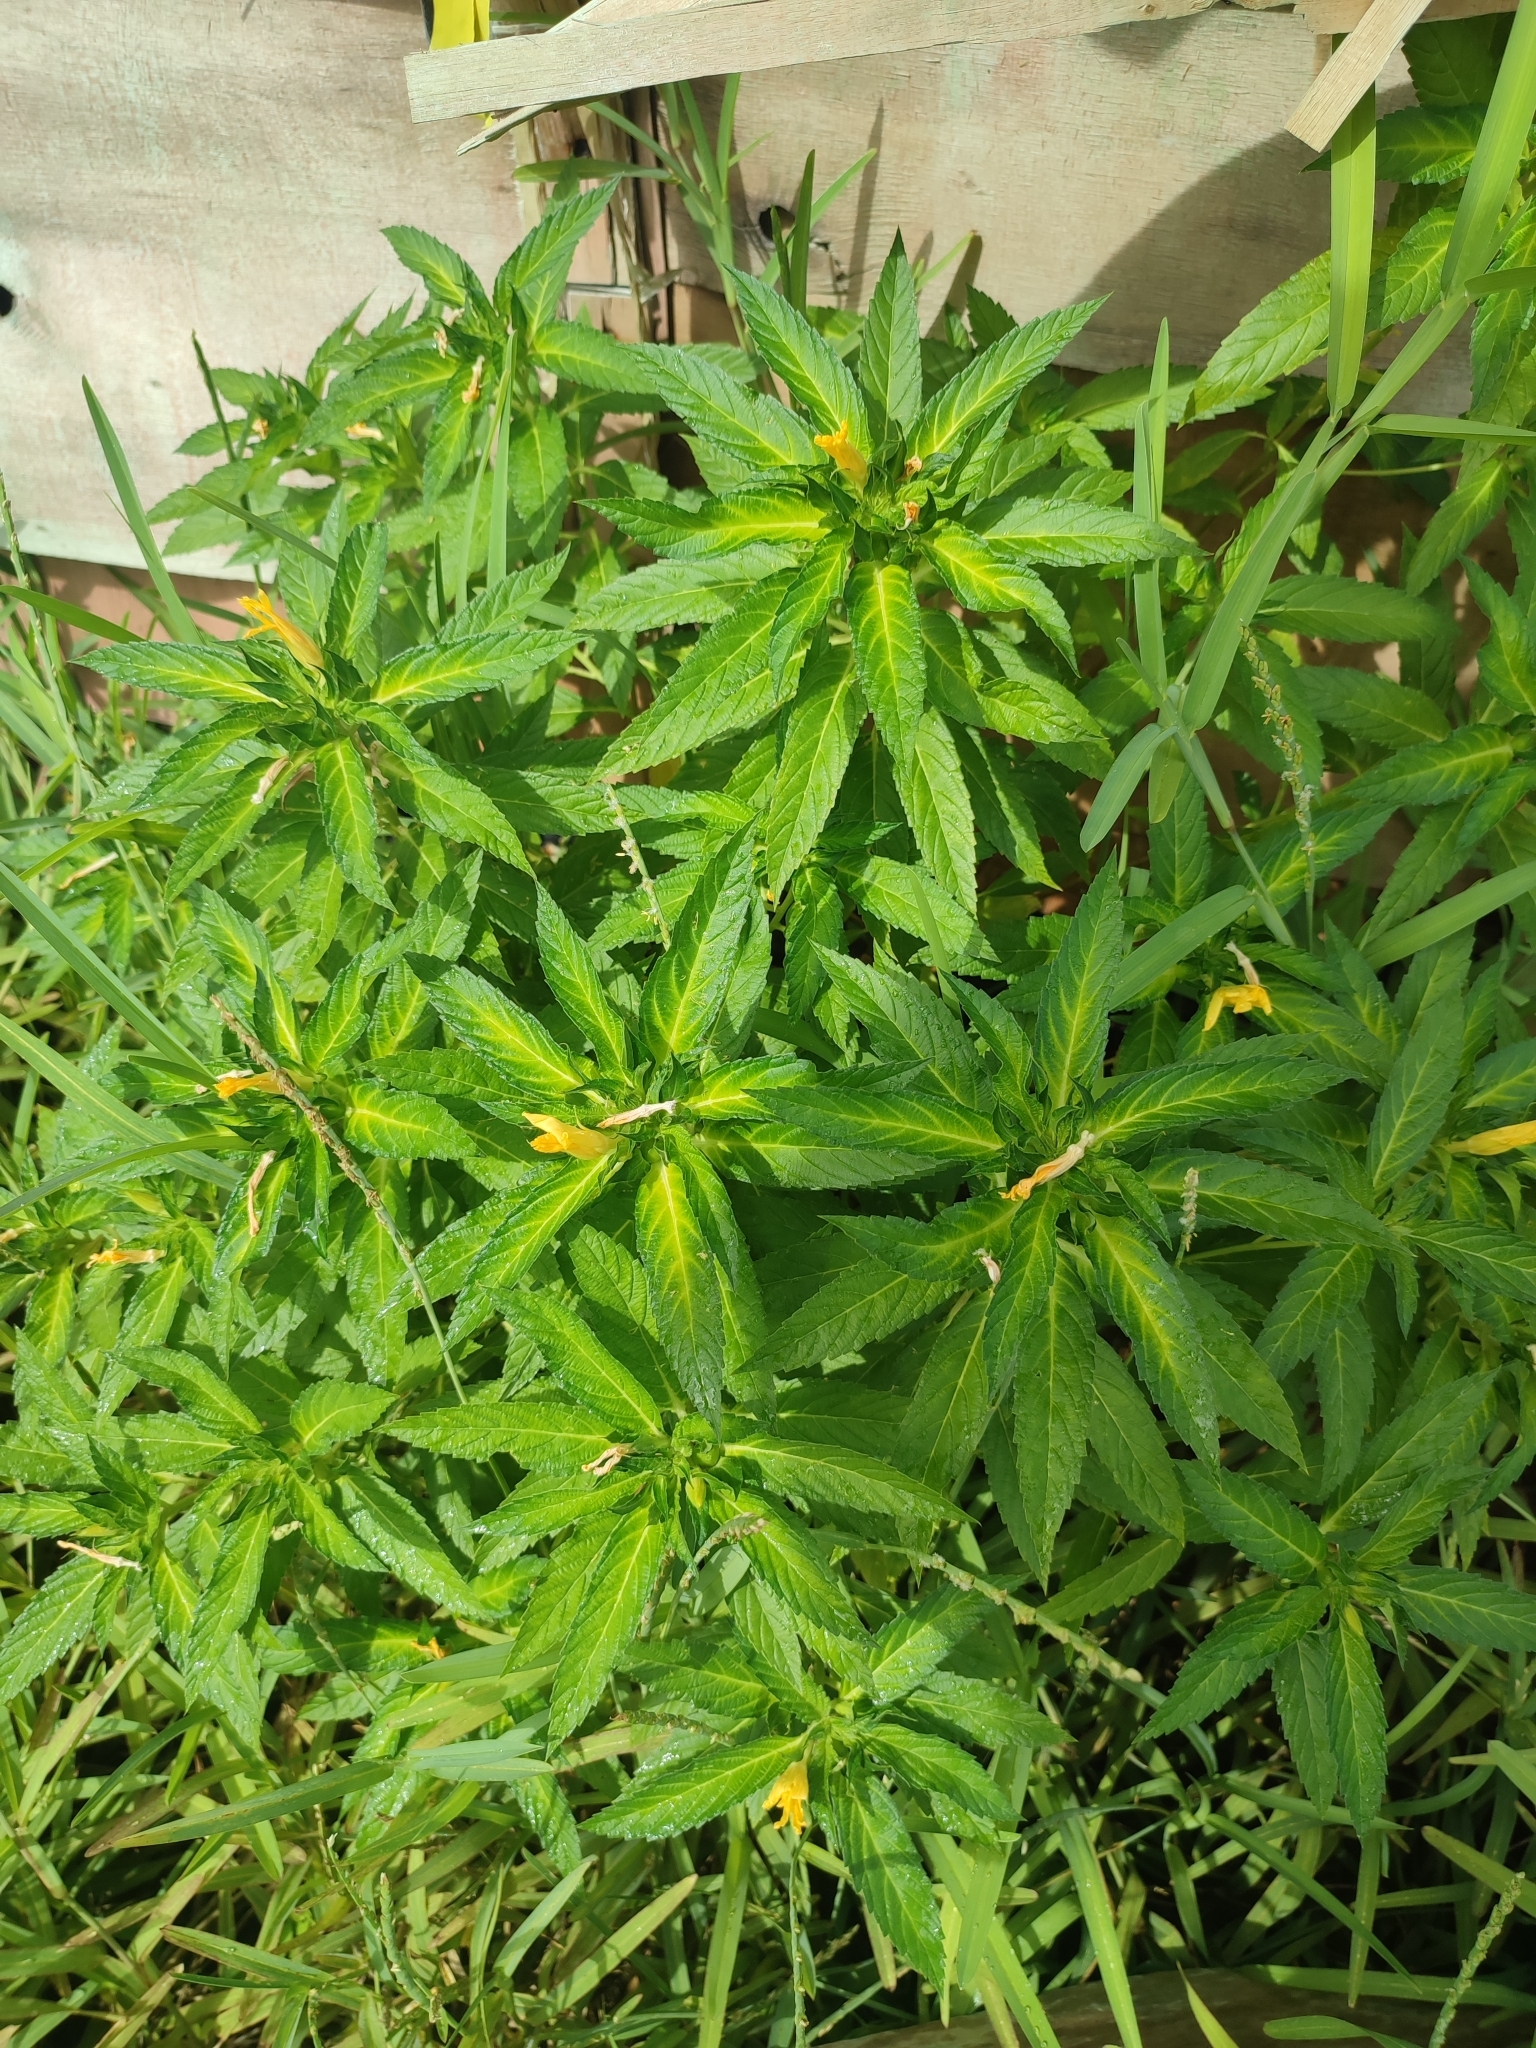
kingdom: Plantae
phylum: Tracheophyta
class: Magnoliopsida
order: Malpighiales
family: Turneraceae
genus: Turnera
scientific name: Turnera ulmifolia
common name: Ramgoat dashalong
